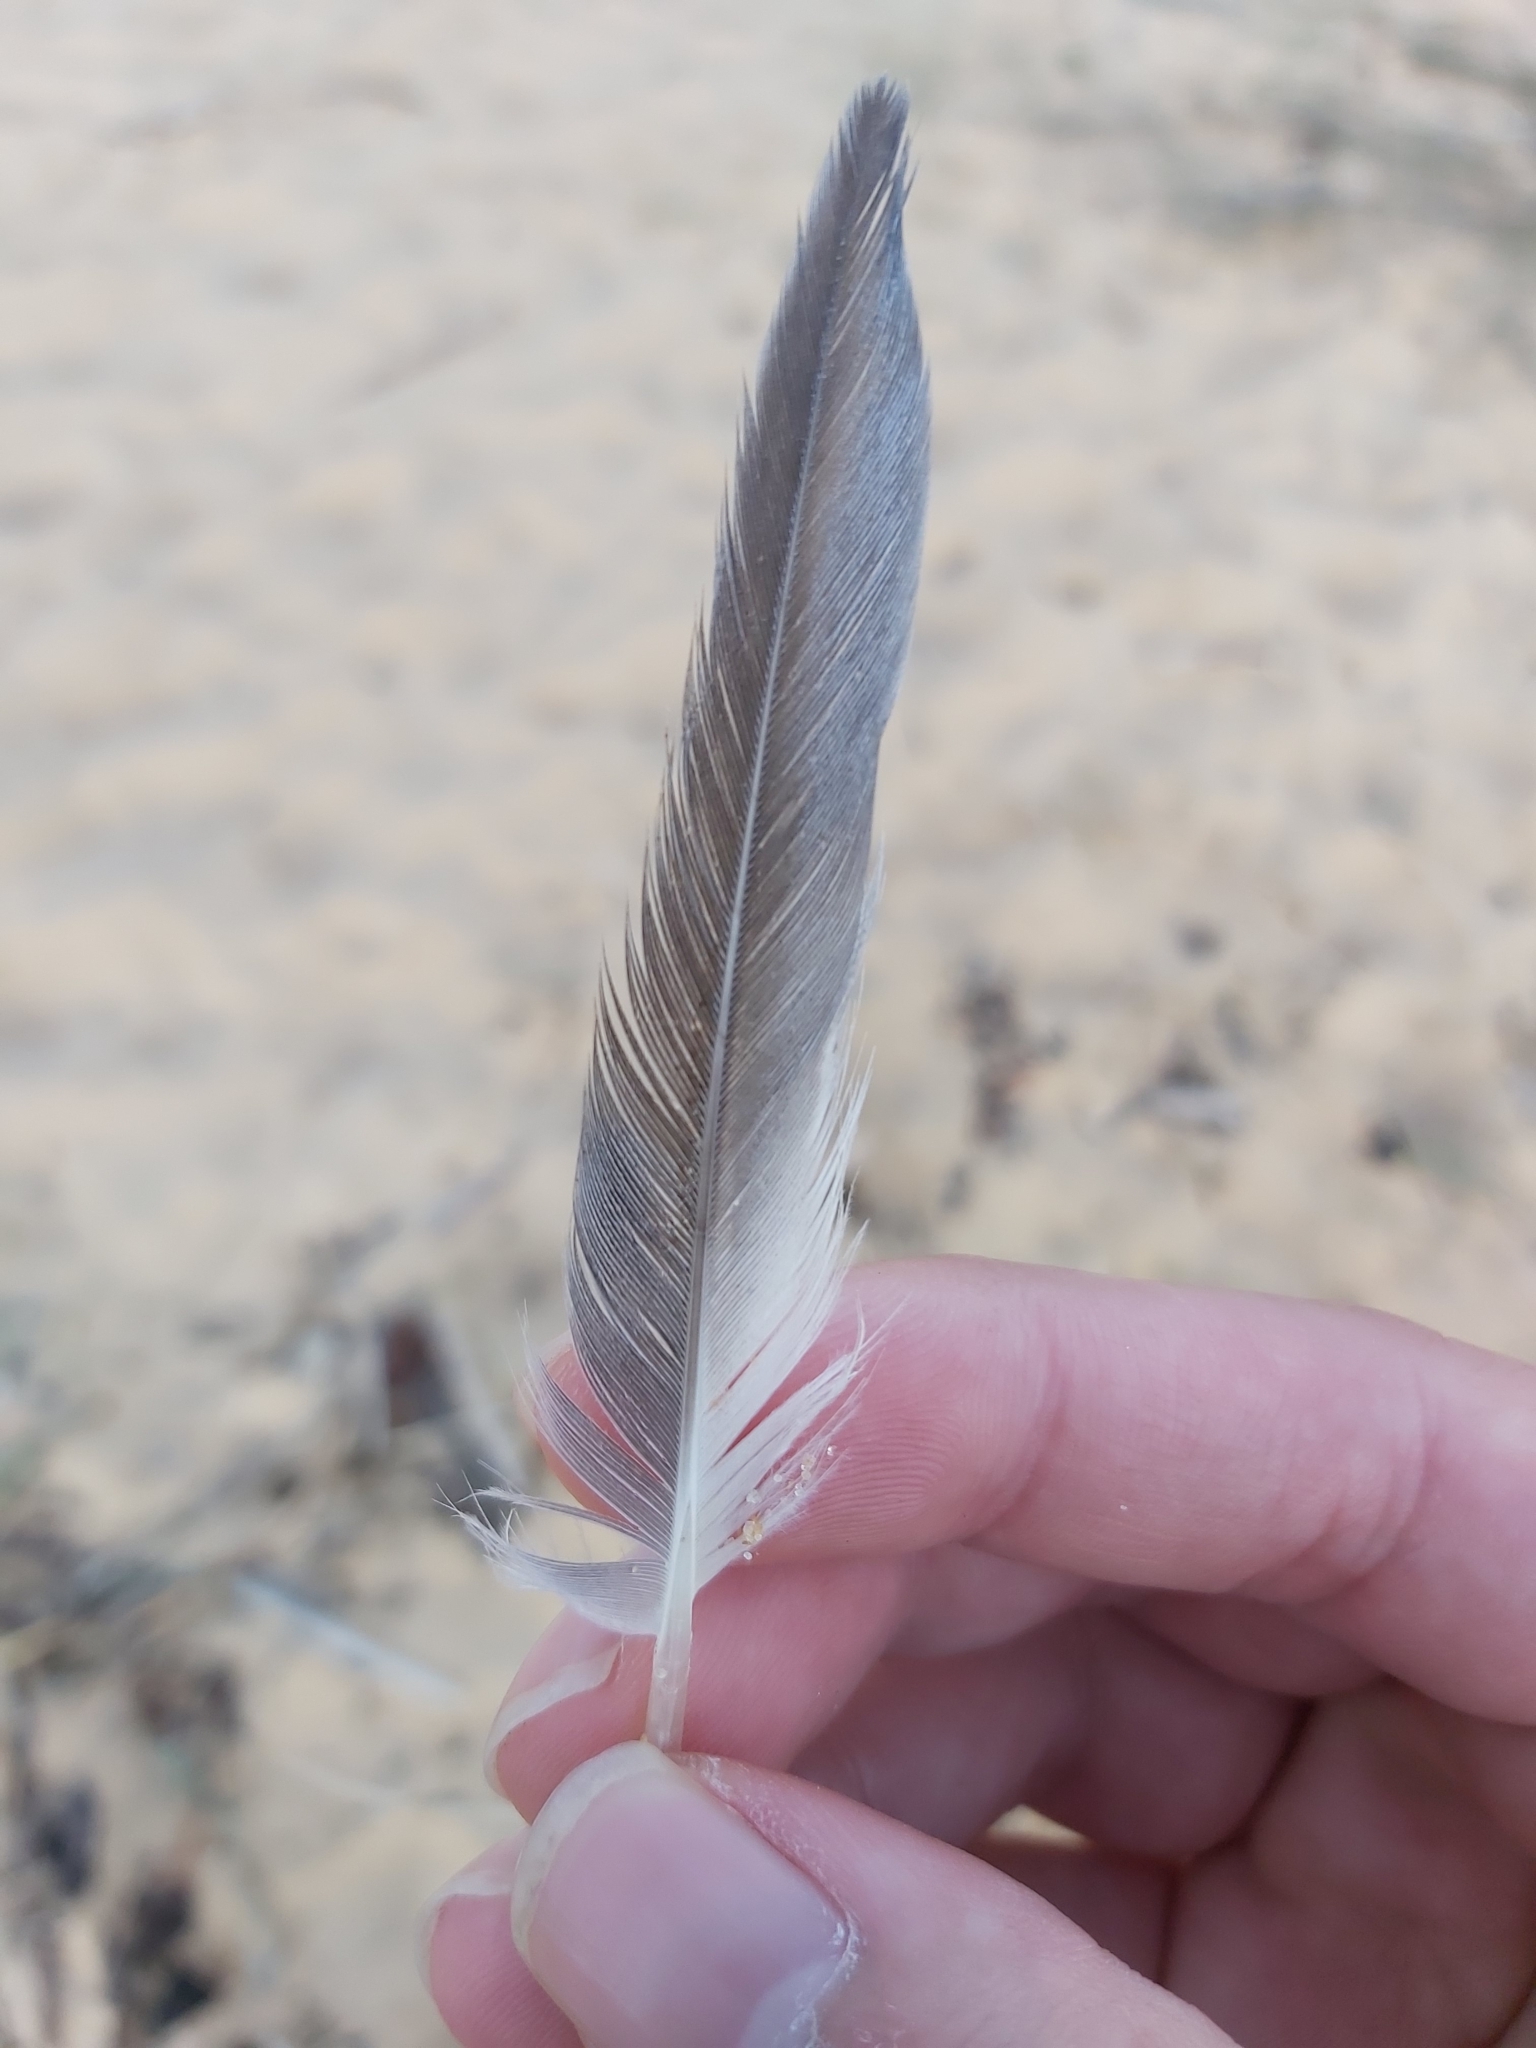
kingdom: Animalia
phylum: Chordata
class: Aves
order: Charadriiformes
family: Laridae
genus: Thalasseus
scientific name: Thalasseus bergii
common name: Greater crested tern
